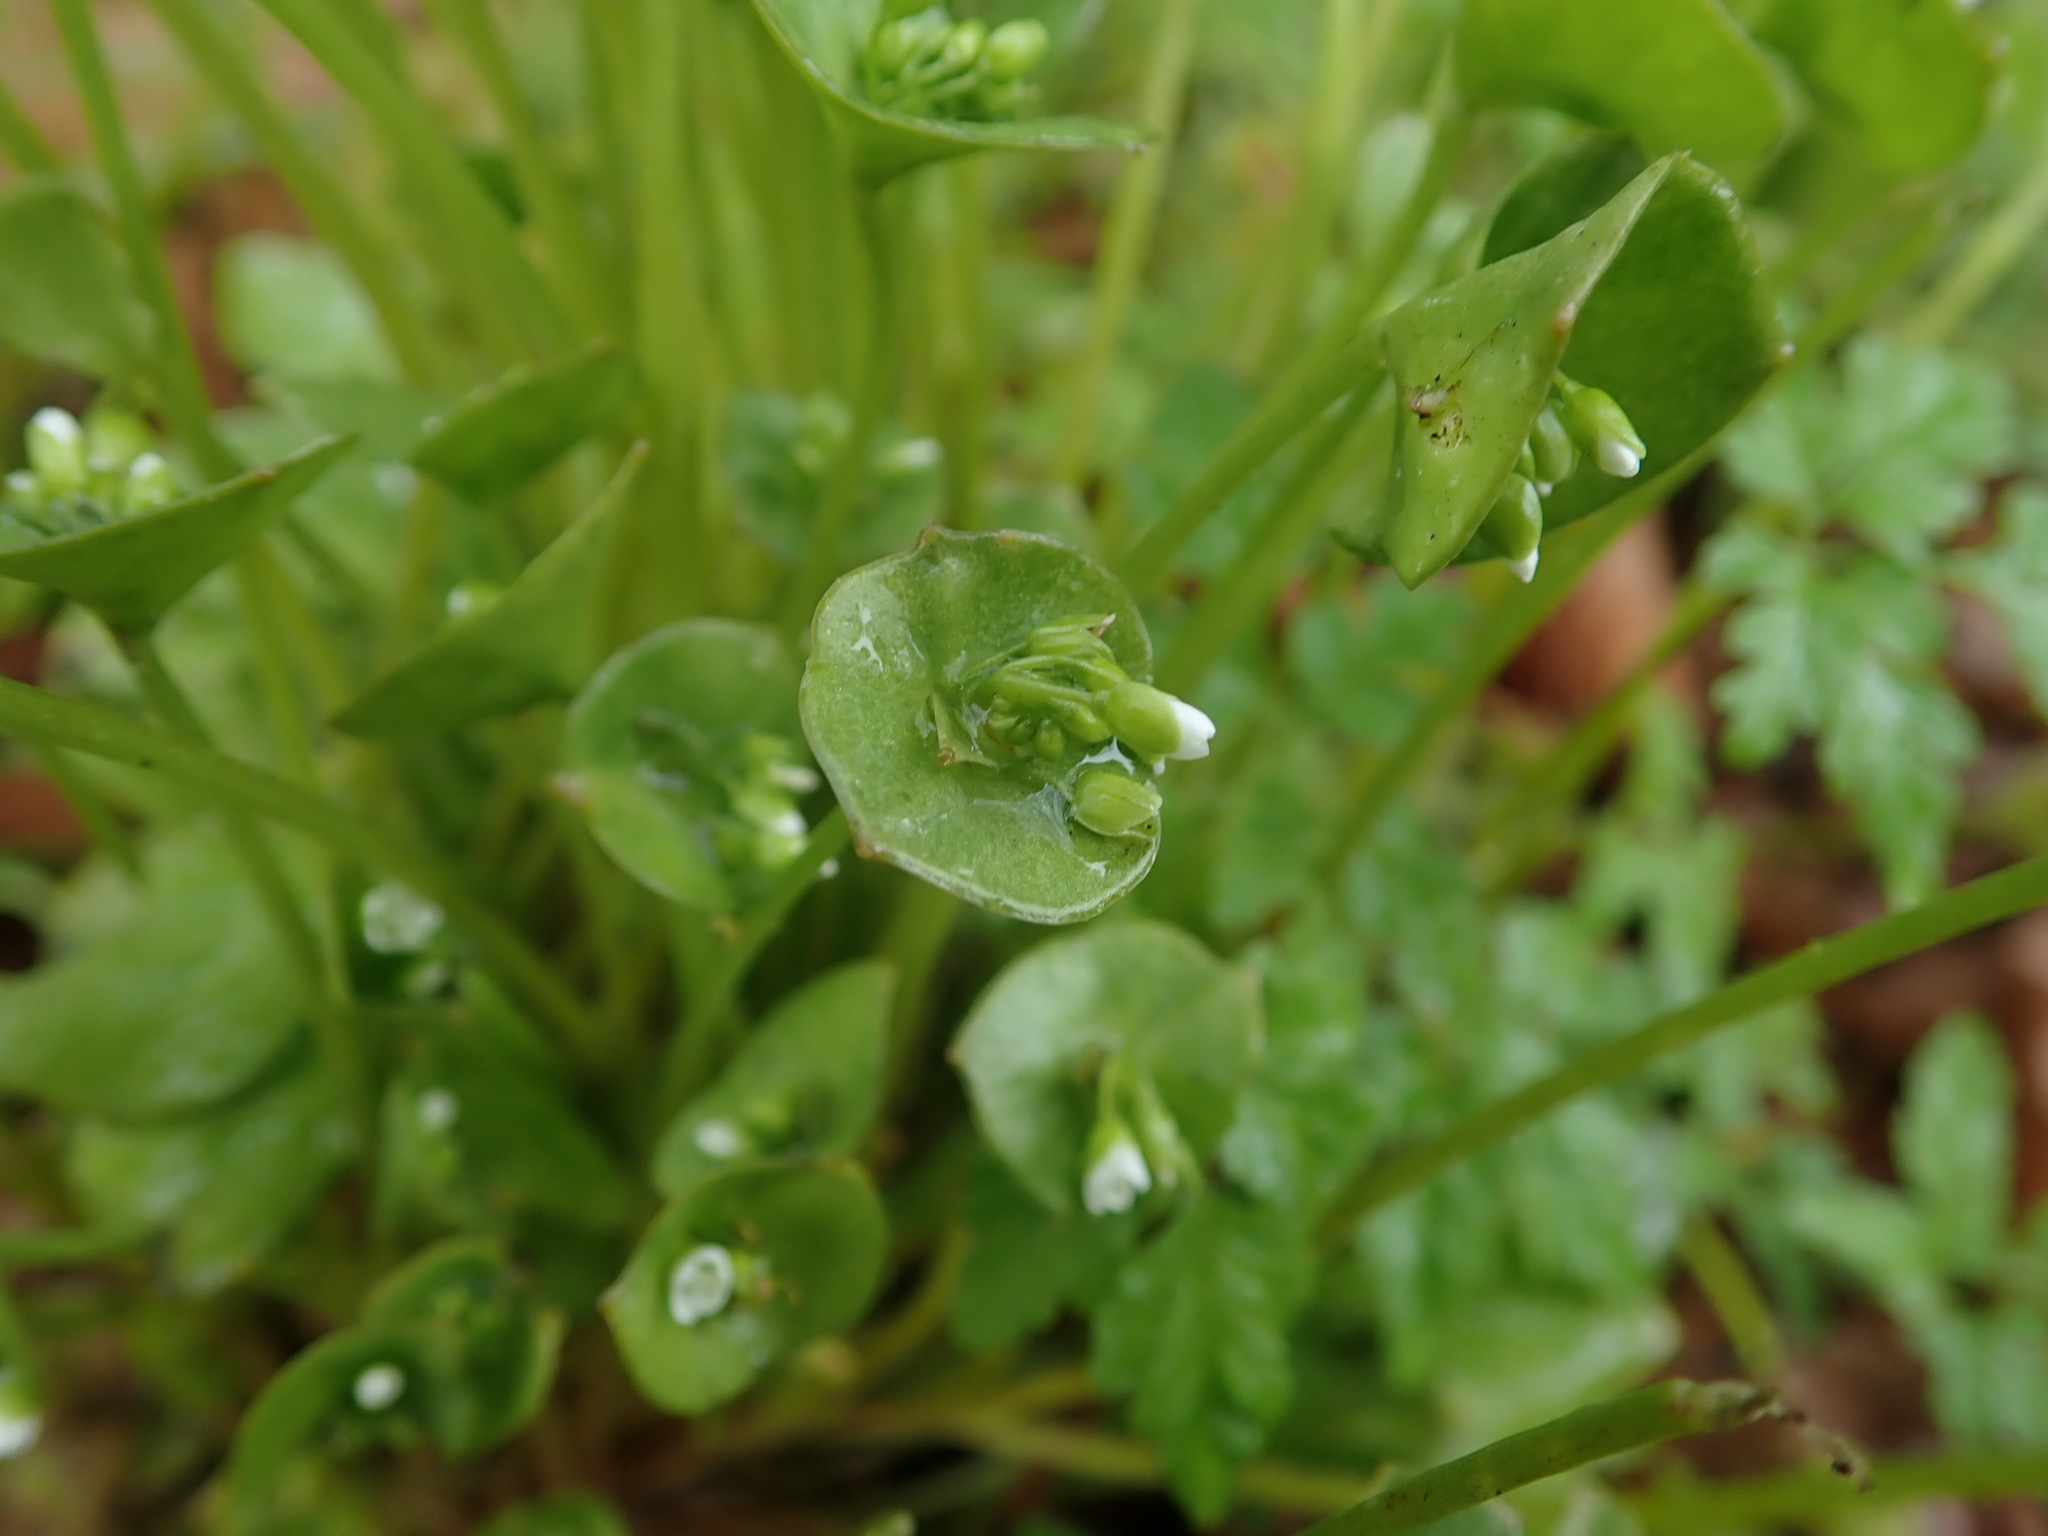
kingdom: Plantae
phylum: Tracheophyta
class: Magnoliopsida
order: Caryophyllales
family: Montiaceae
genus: Claytonia
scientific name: Claytonia perfoliata
